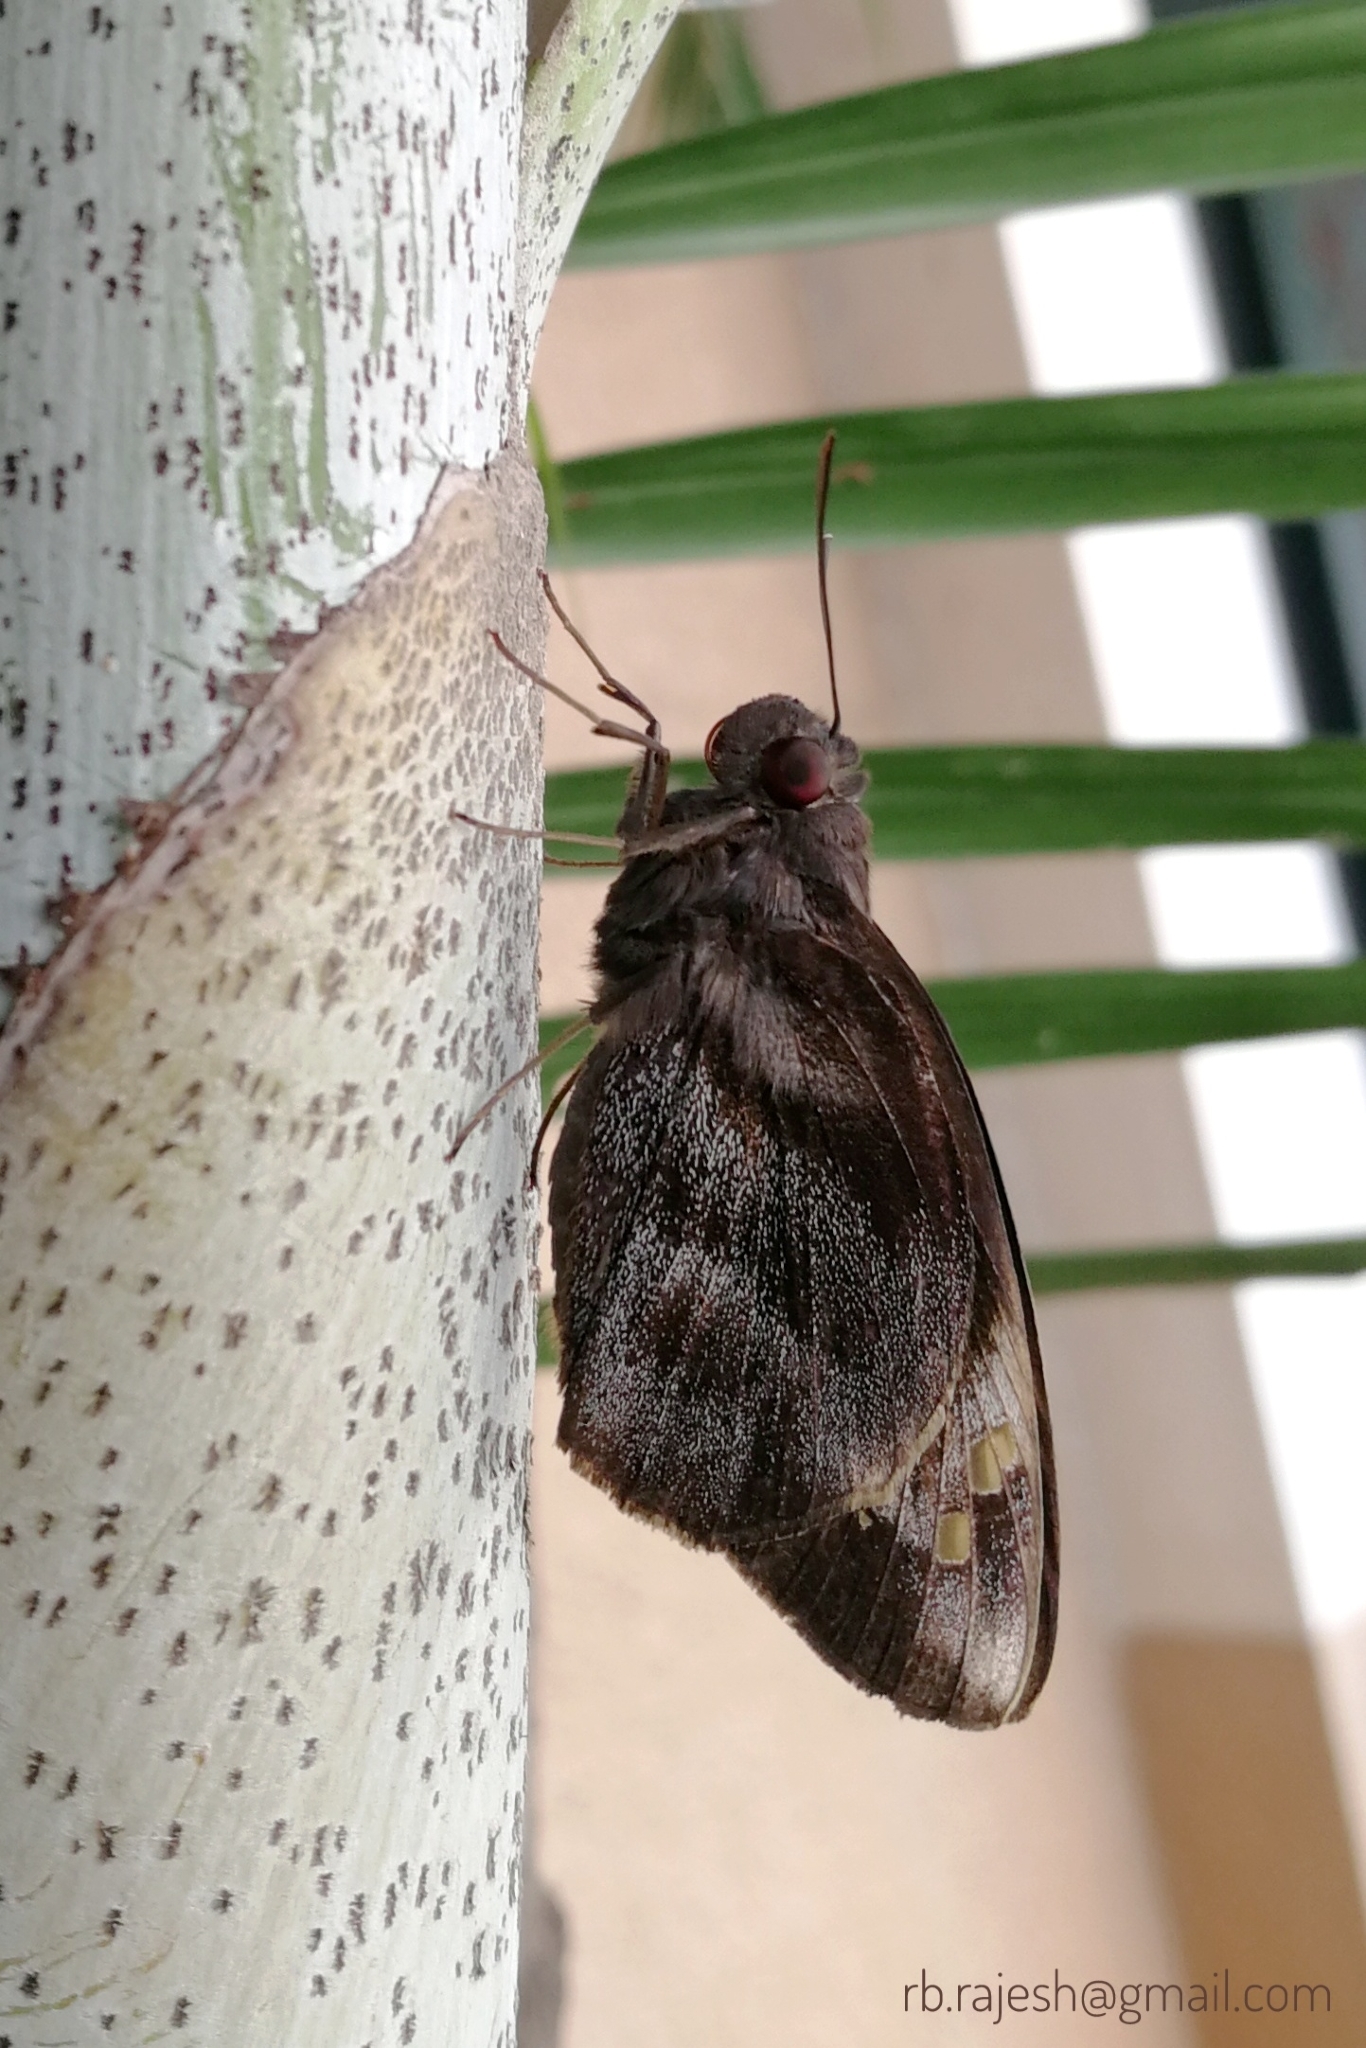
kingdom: Animalia
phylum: Arthropoda
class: Insecta
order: Lepidoptera
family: Hesperiidae
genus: Gangara
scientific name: Gangara thyrsis
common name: Giant redeye
